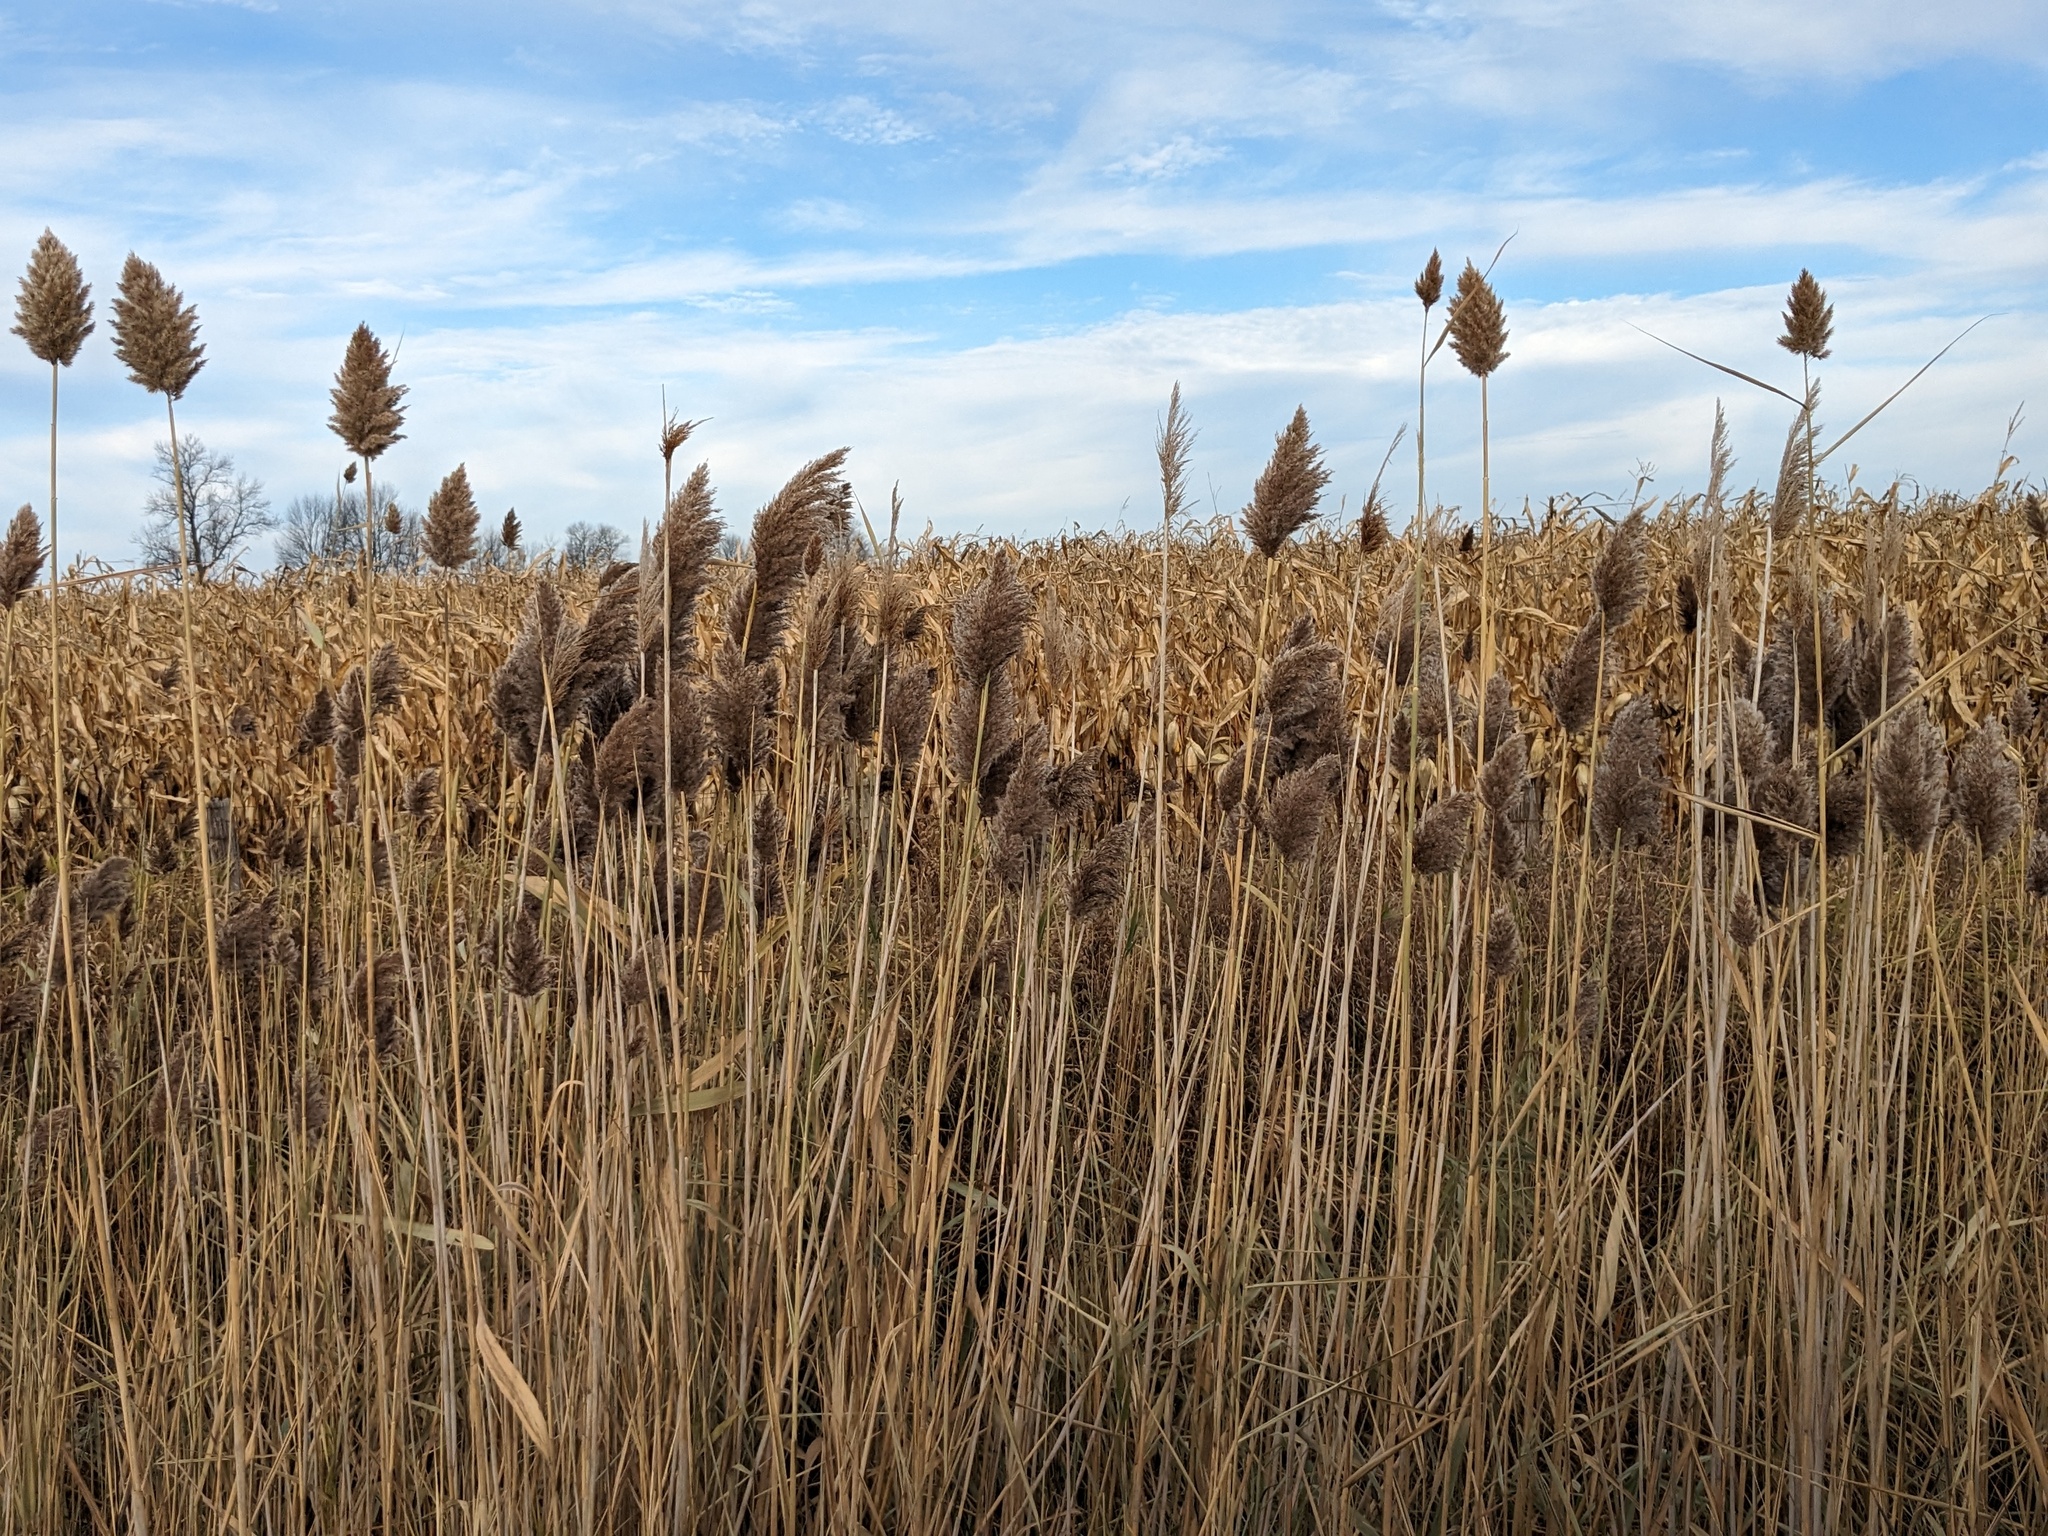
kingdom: Plantae
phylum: Tracheophyta
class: Liliopsida
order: Poales
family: Poaceae
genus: Phragmites
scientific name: Phragmites australis
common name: Common reed
